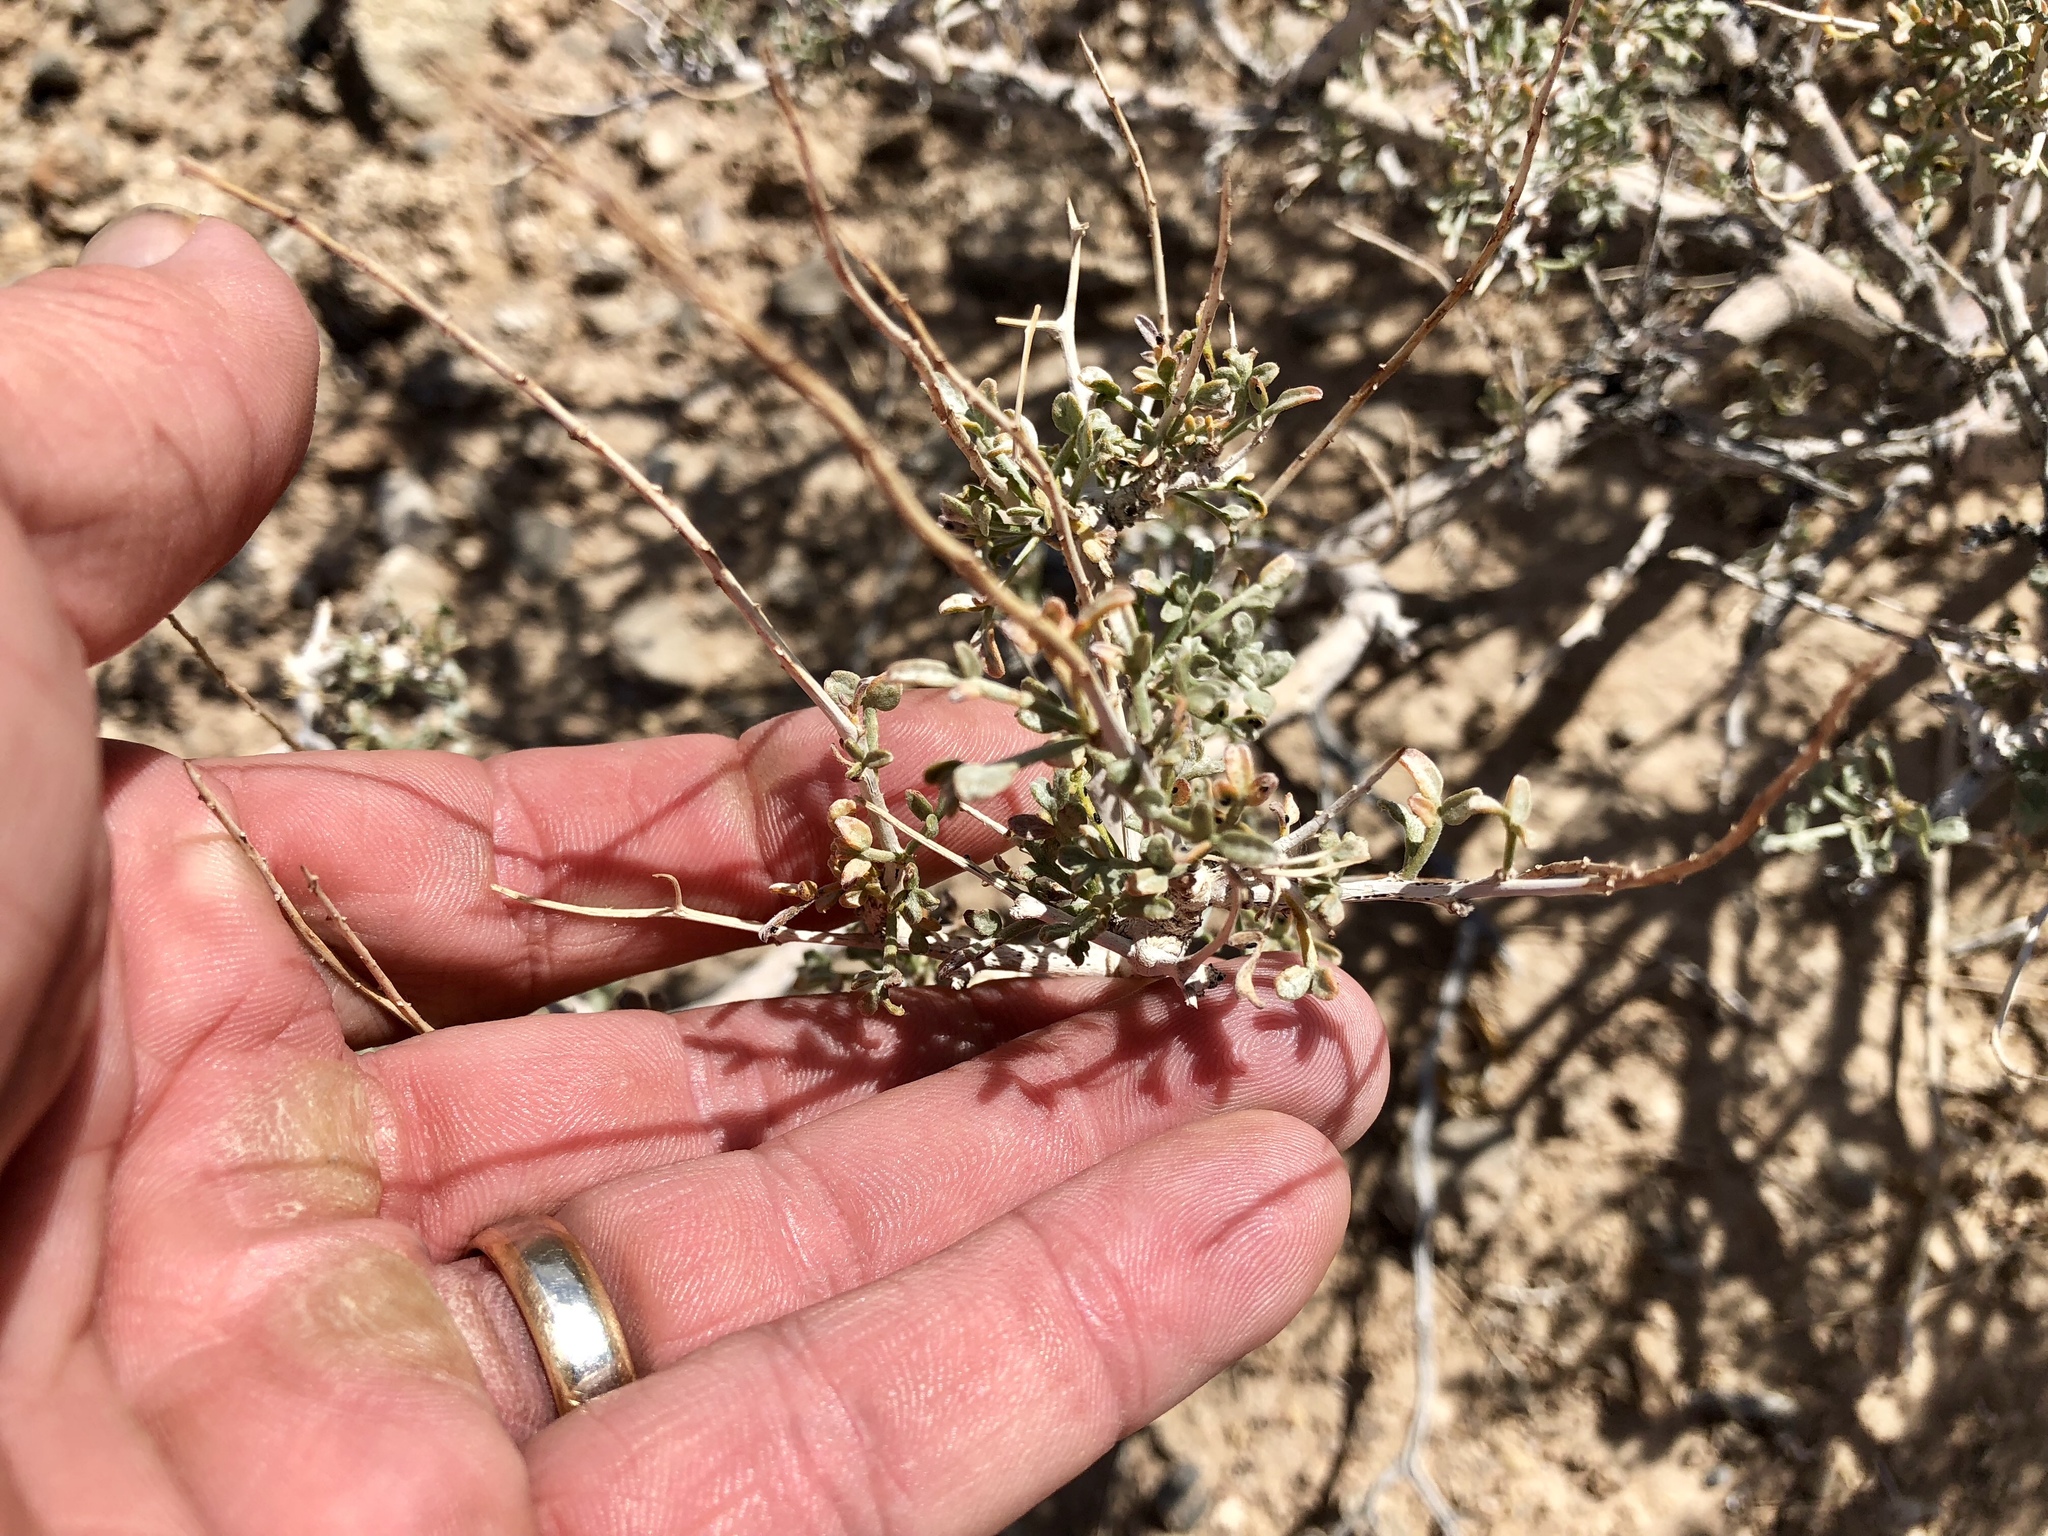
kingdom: Plantae
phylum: Tracheophyta
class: Magnoliopsida
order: Fabales
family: Fabaceae
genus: Psorothamnus
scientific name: Psorothamnus arborescens
